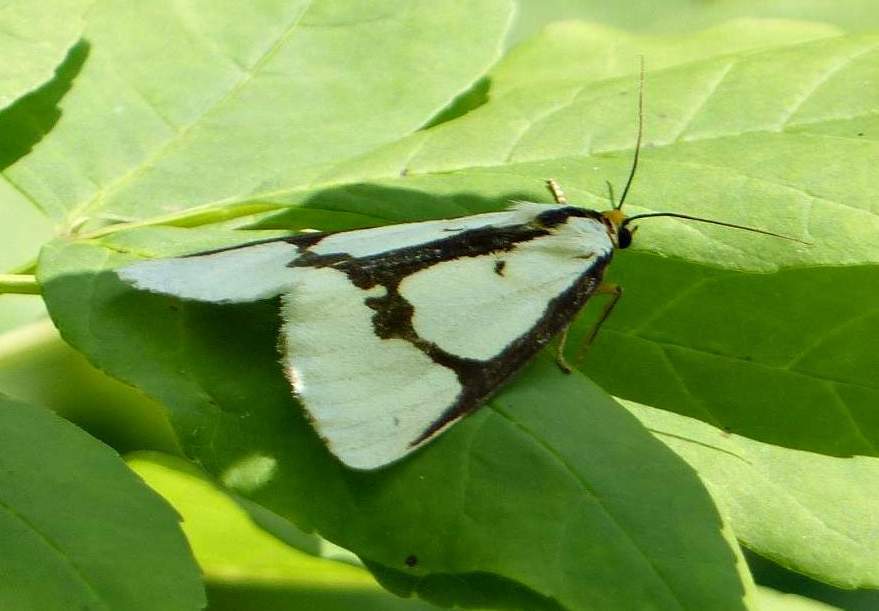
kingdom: Animalia
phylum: Arthropoda
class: Insecta
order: Lepidoptera
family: Erebidae
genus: Haploa
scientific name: Haploa lecontei
